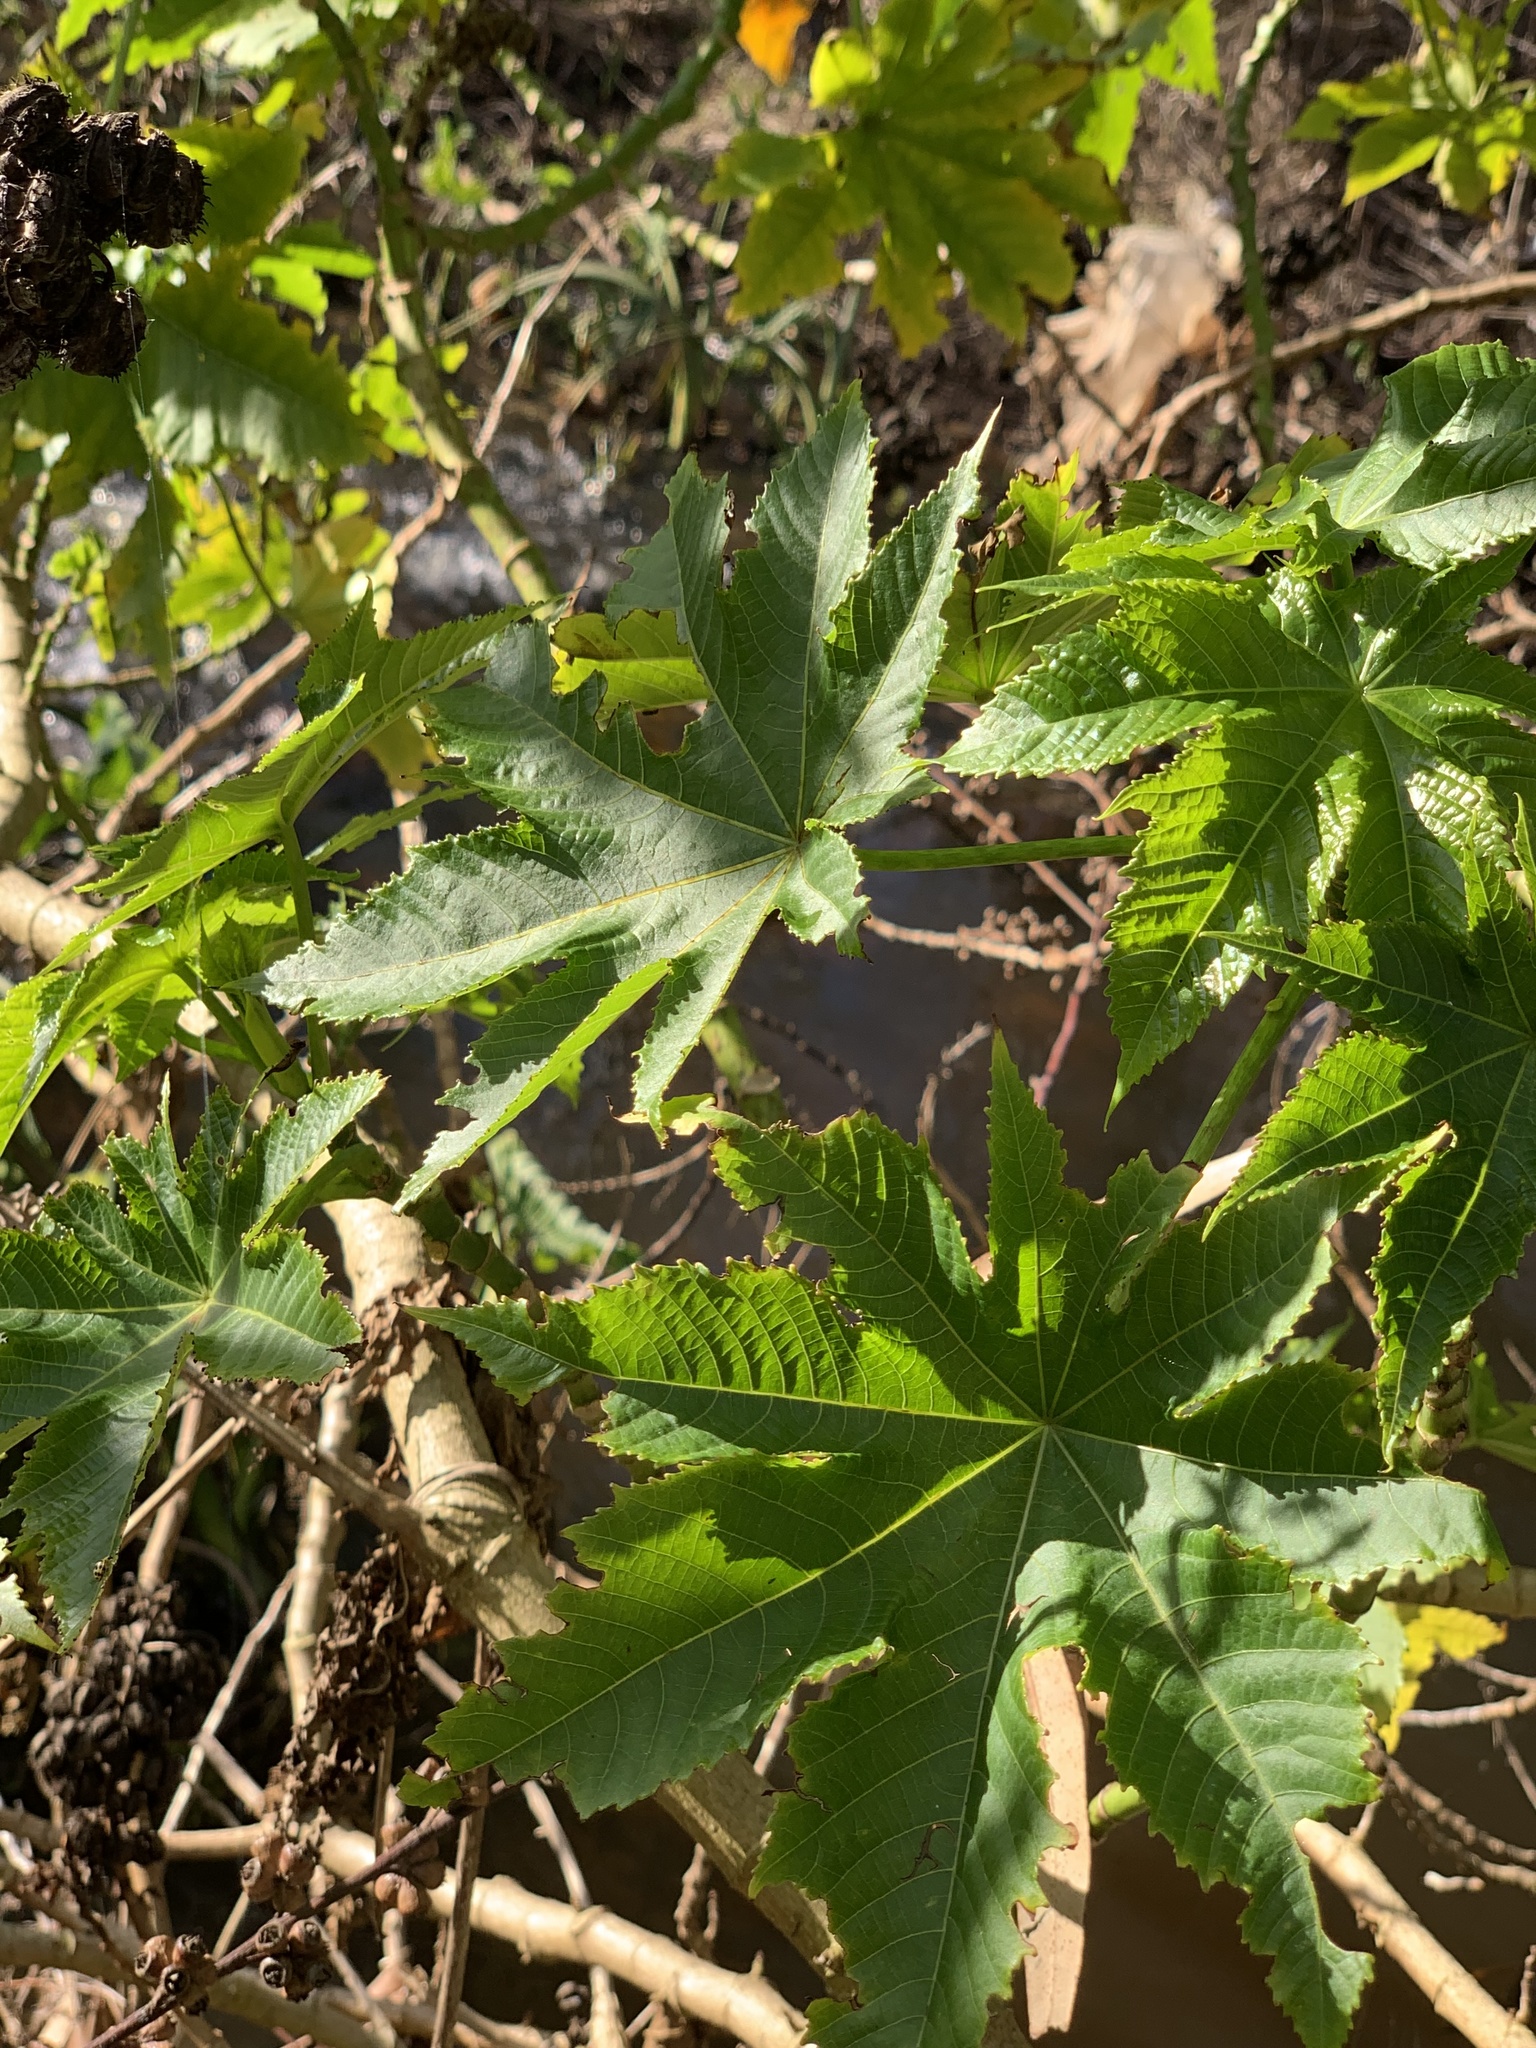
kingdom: Plantae
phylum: Tracheophyta
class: Magnoliopsida
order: Malpighiales
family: Euphorbiaceae
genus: Ricinus
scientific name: Ricinus communis
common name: Castor-oil-plant
